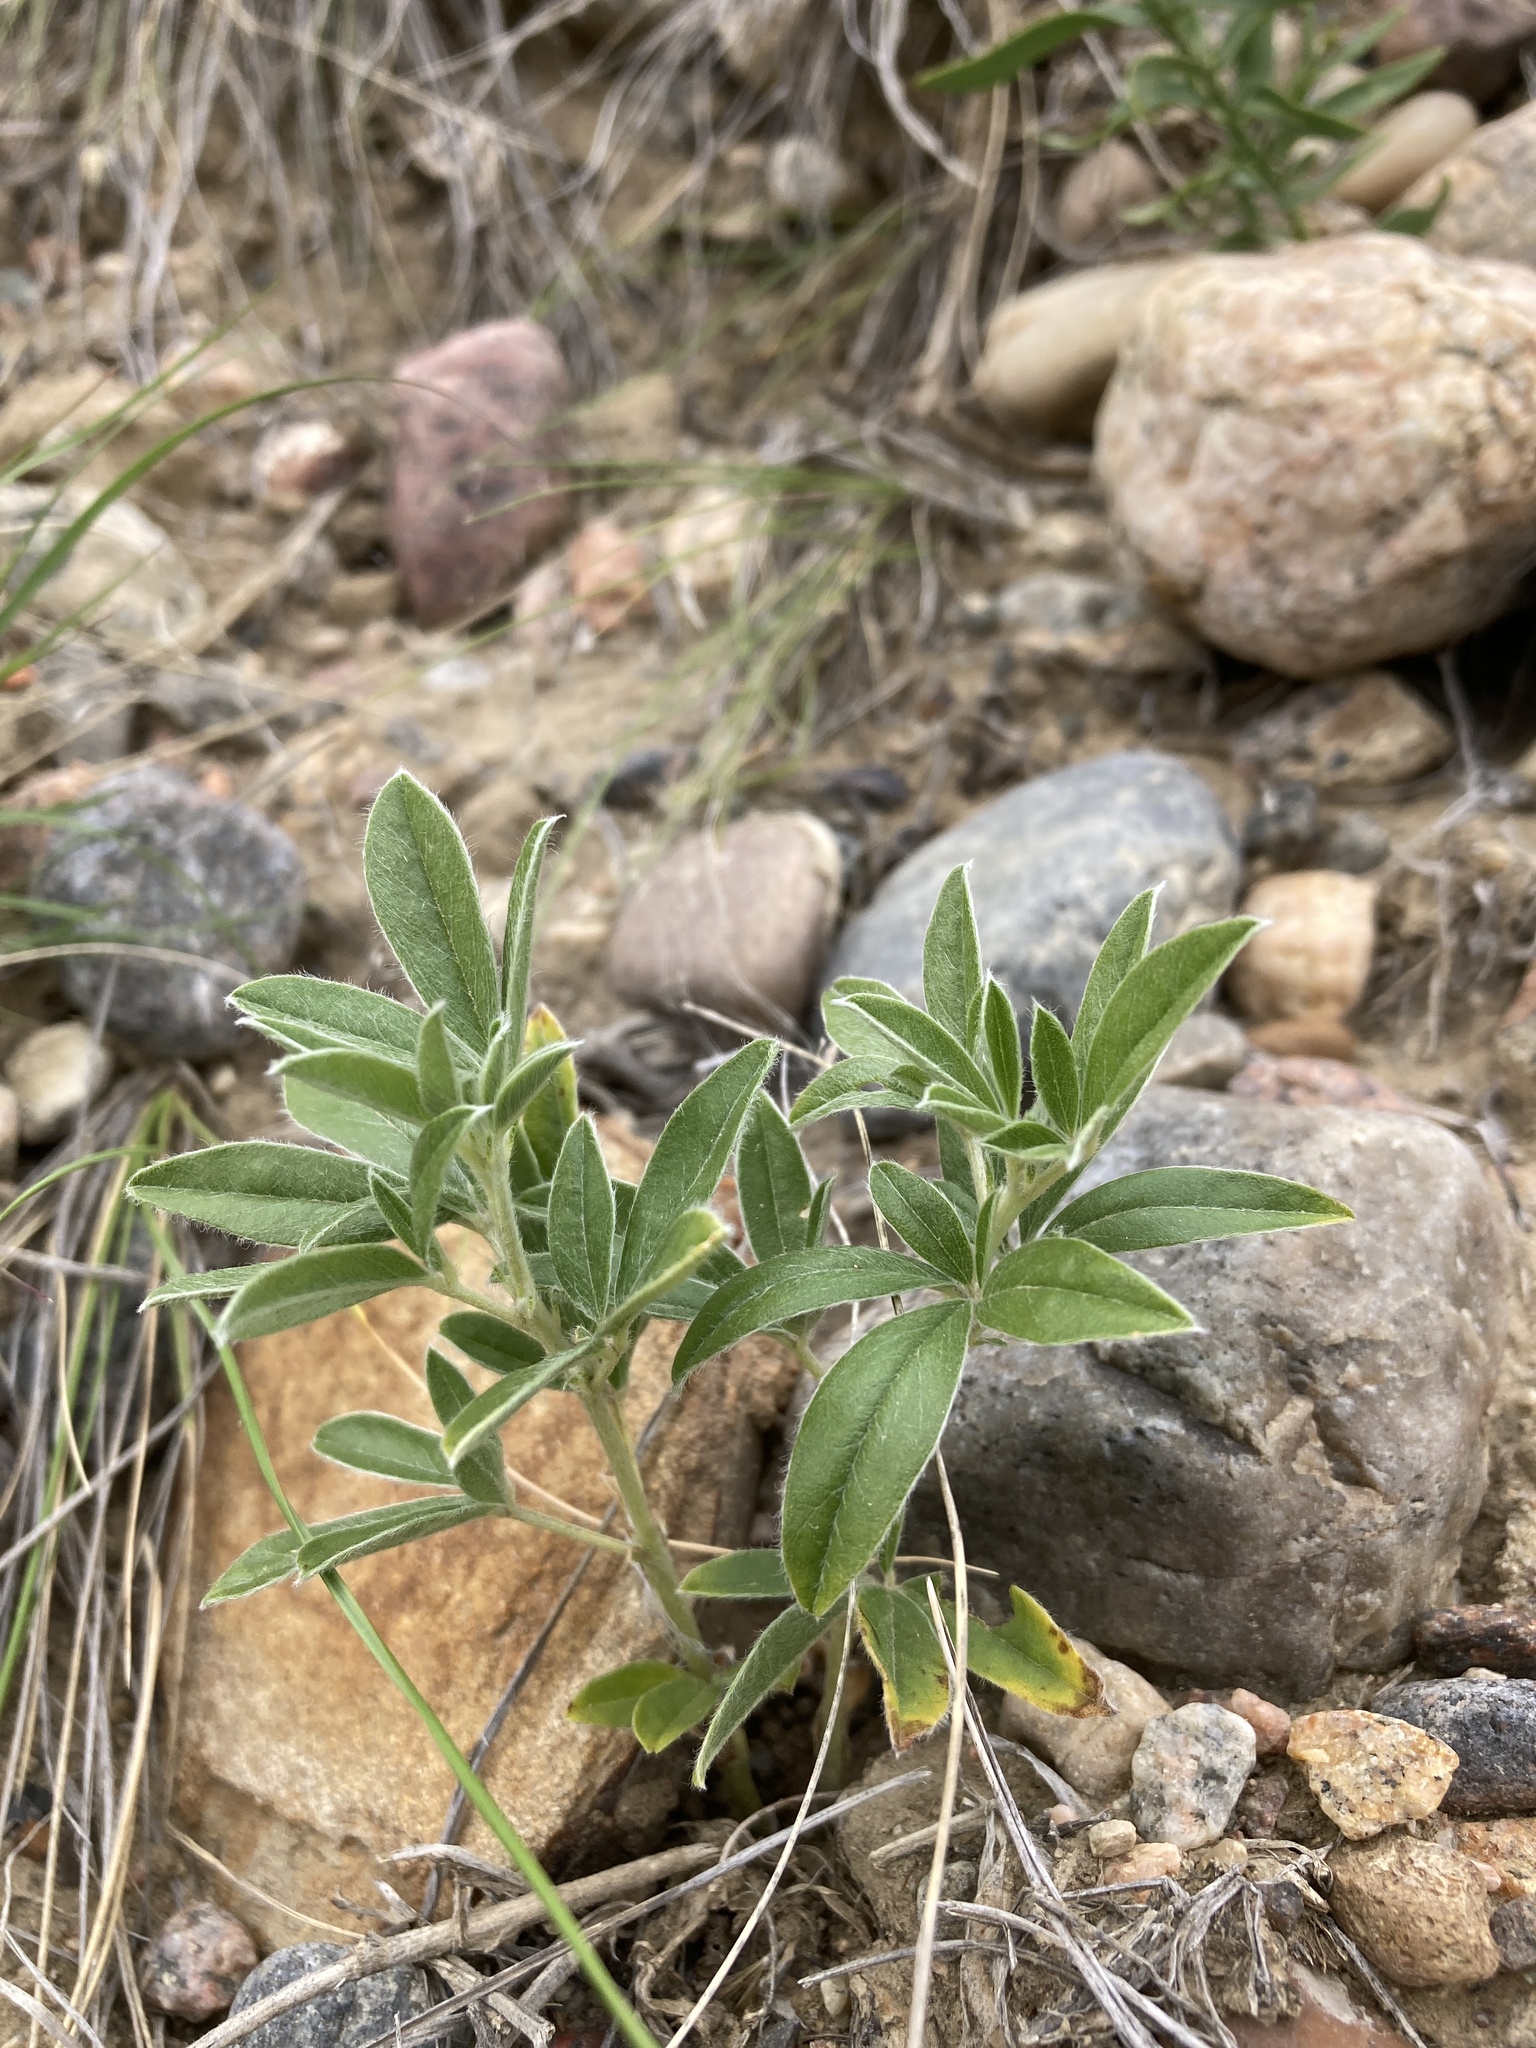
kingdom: Plantae
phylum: Tracheophyta
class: Magnoliopsida
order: Fabales
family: Fabaceae
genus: Pediomelum
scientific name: Pediomelum argophyllum
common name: Silver-leaved indian breadroot
